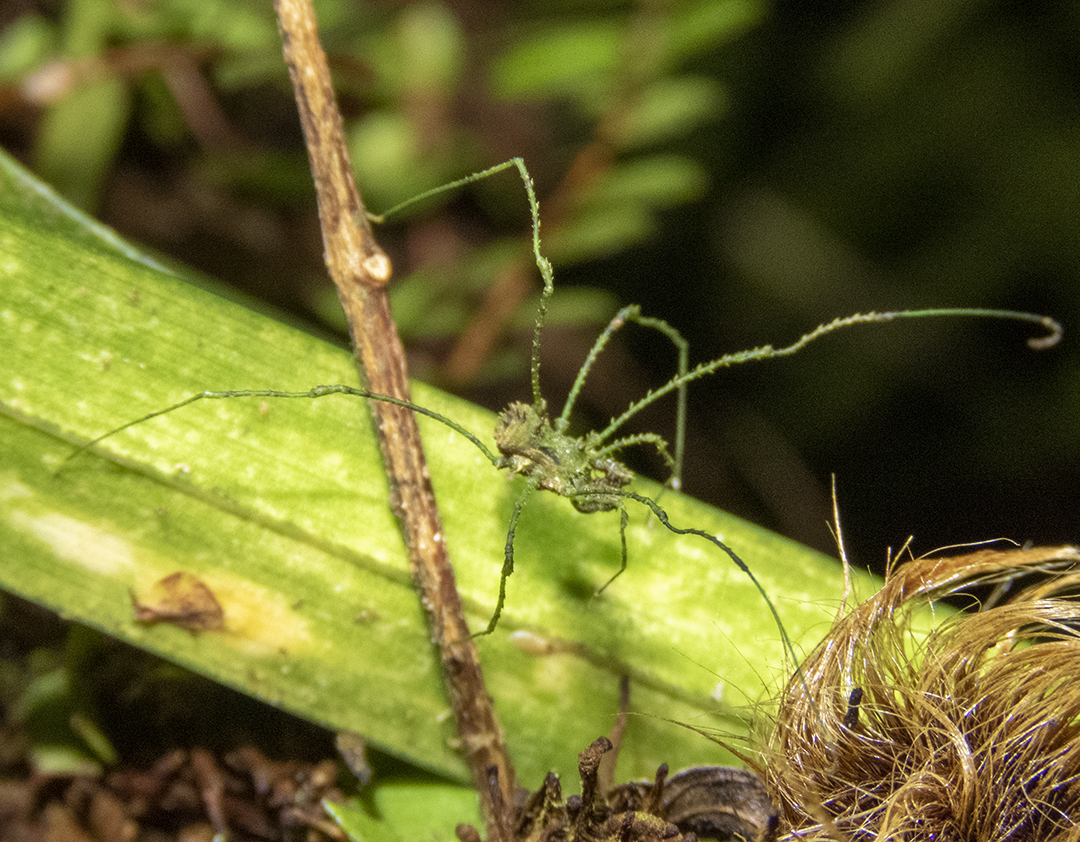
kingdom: Animalia
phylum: Arthropoda
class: Arachnida
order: Opiliones
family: Triaenonychidae
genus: Algidia
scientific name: Algidia viridata
